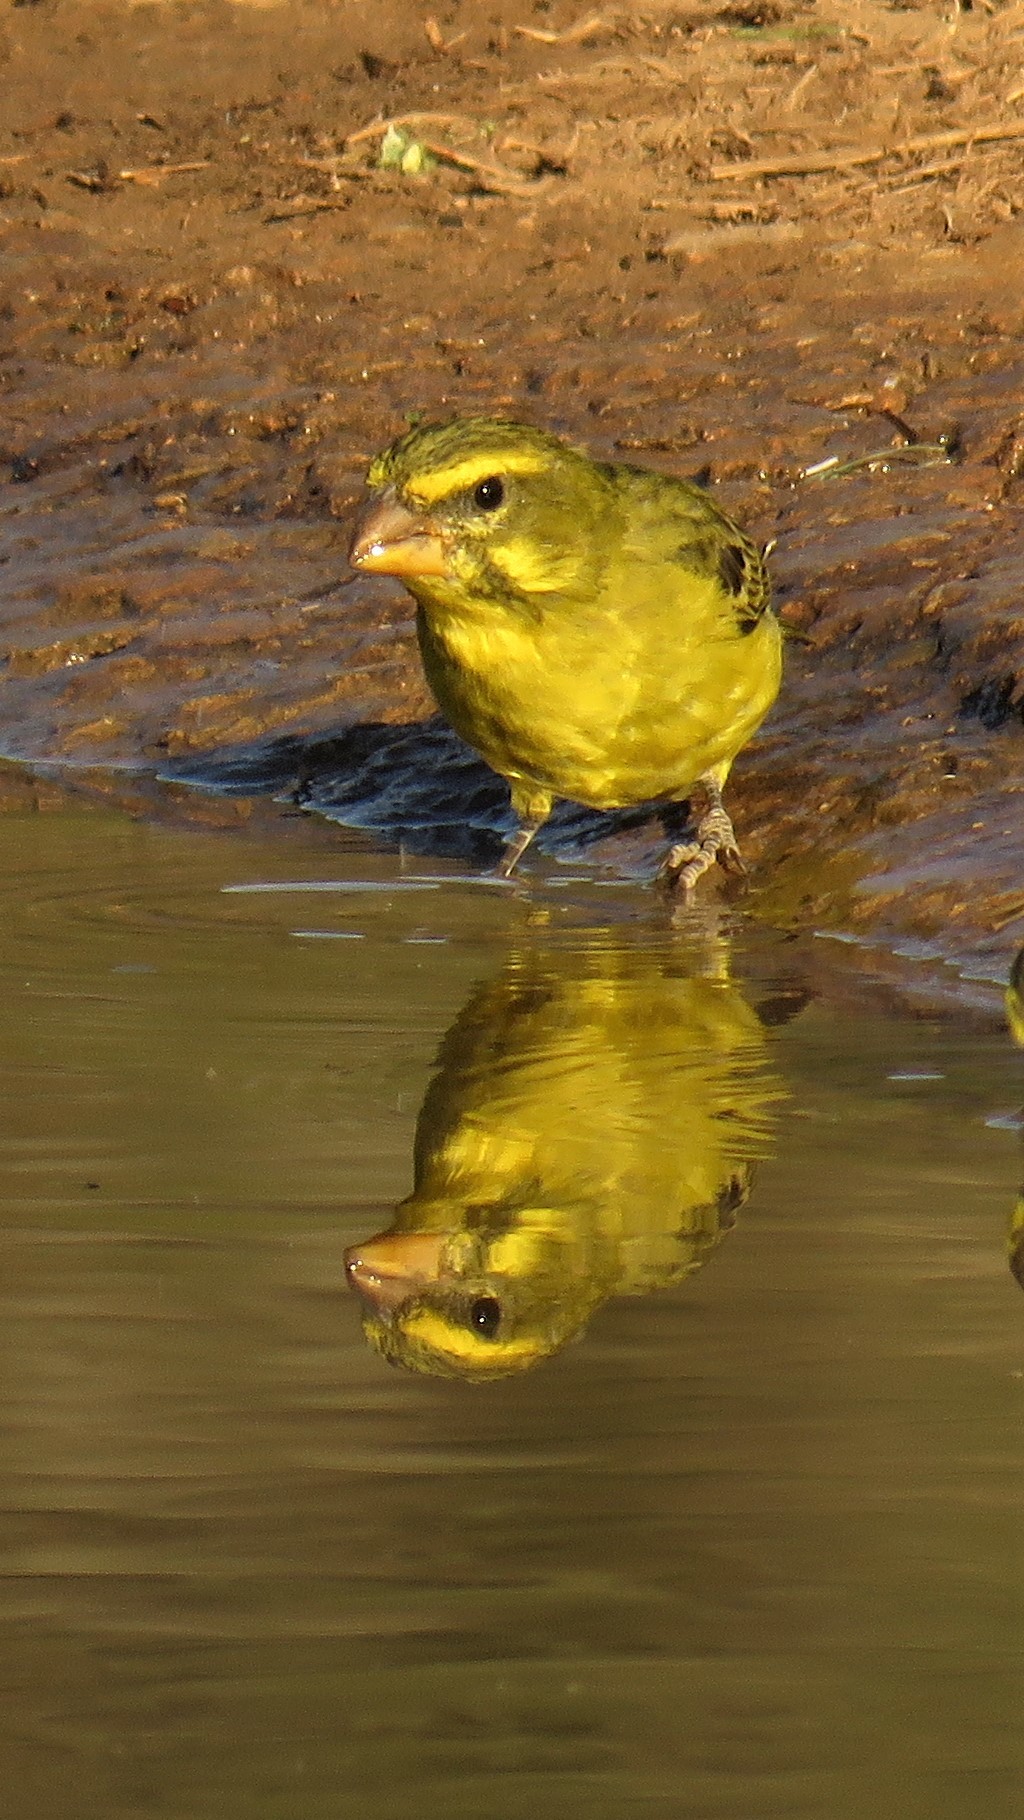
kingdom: Animalia
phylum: Chordata
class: Aves
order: Passeriformes
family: Fringillidae
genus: Crithagra
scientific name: Crithagra sulphurata
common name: Brimstone canary
